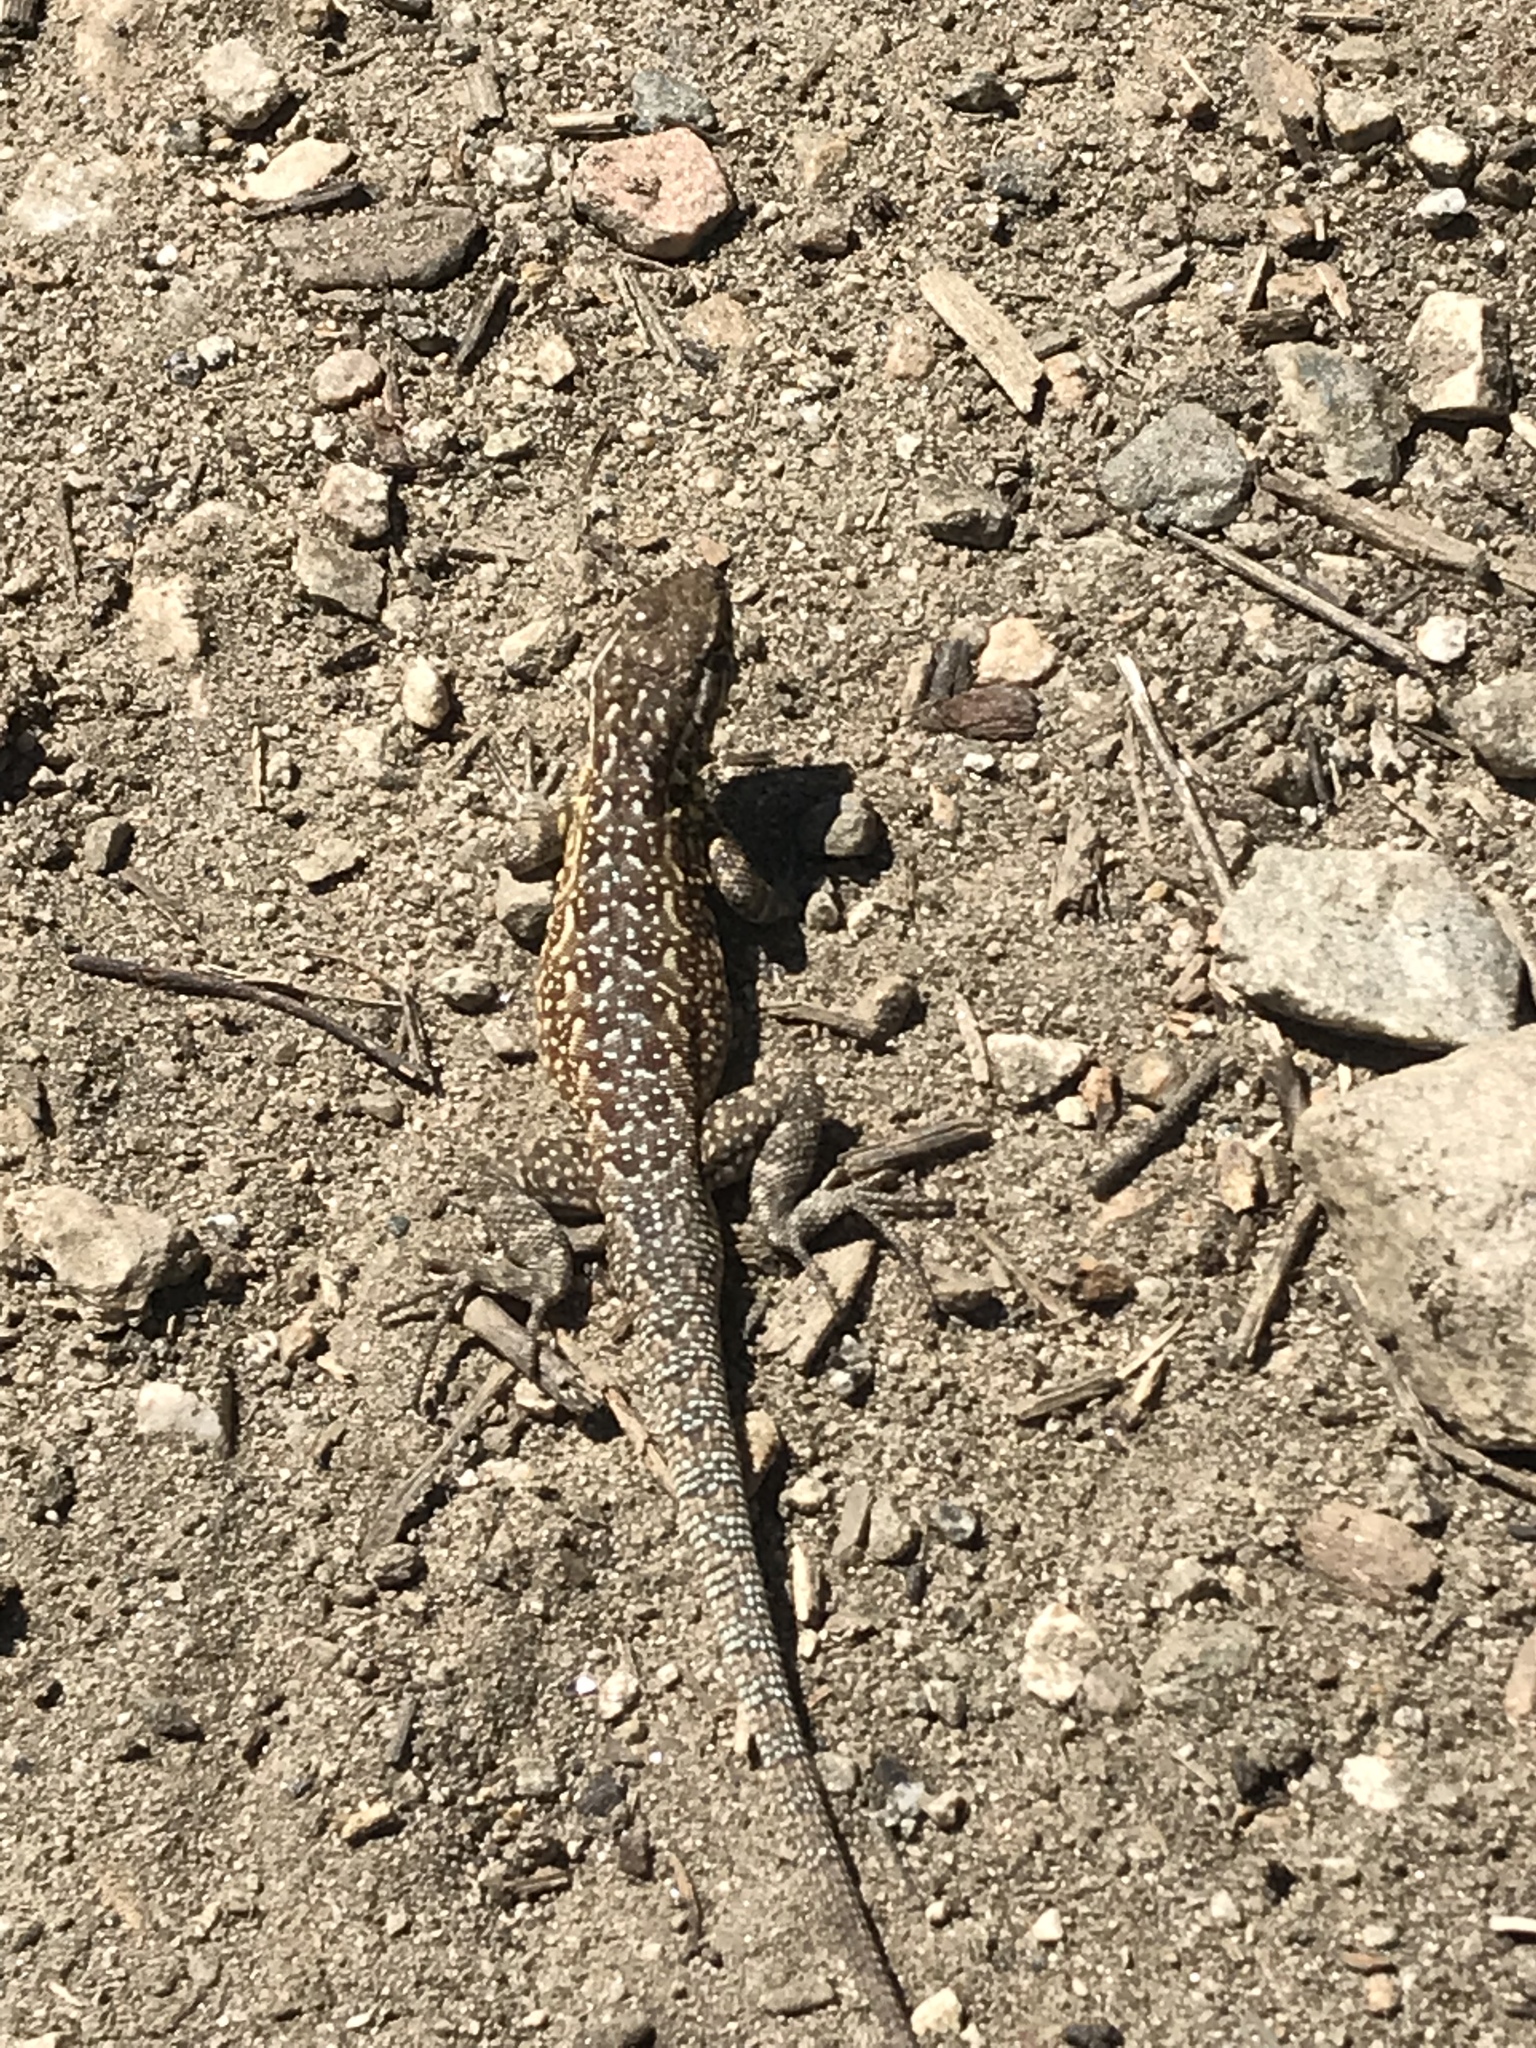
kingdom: Animalia
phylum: Chordata
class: Squamata
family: Phrynosomatidae
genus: Uta
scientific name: Uta stansburiana
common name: Side-blotched lizard
